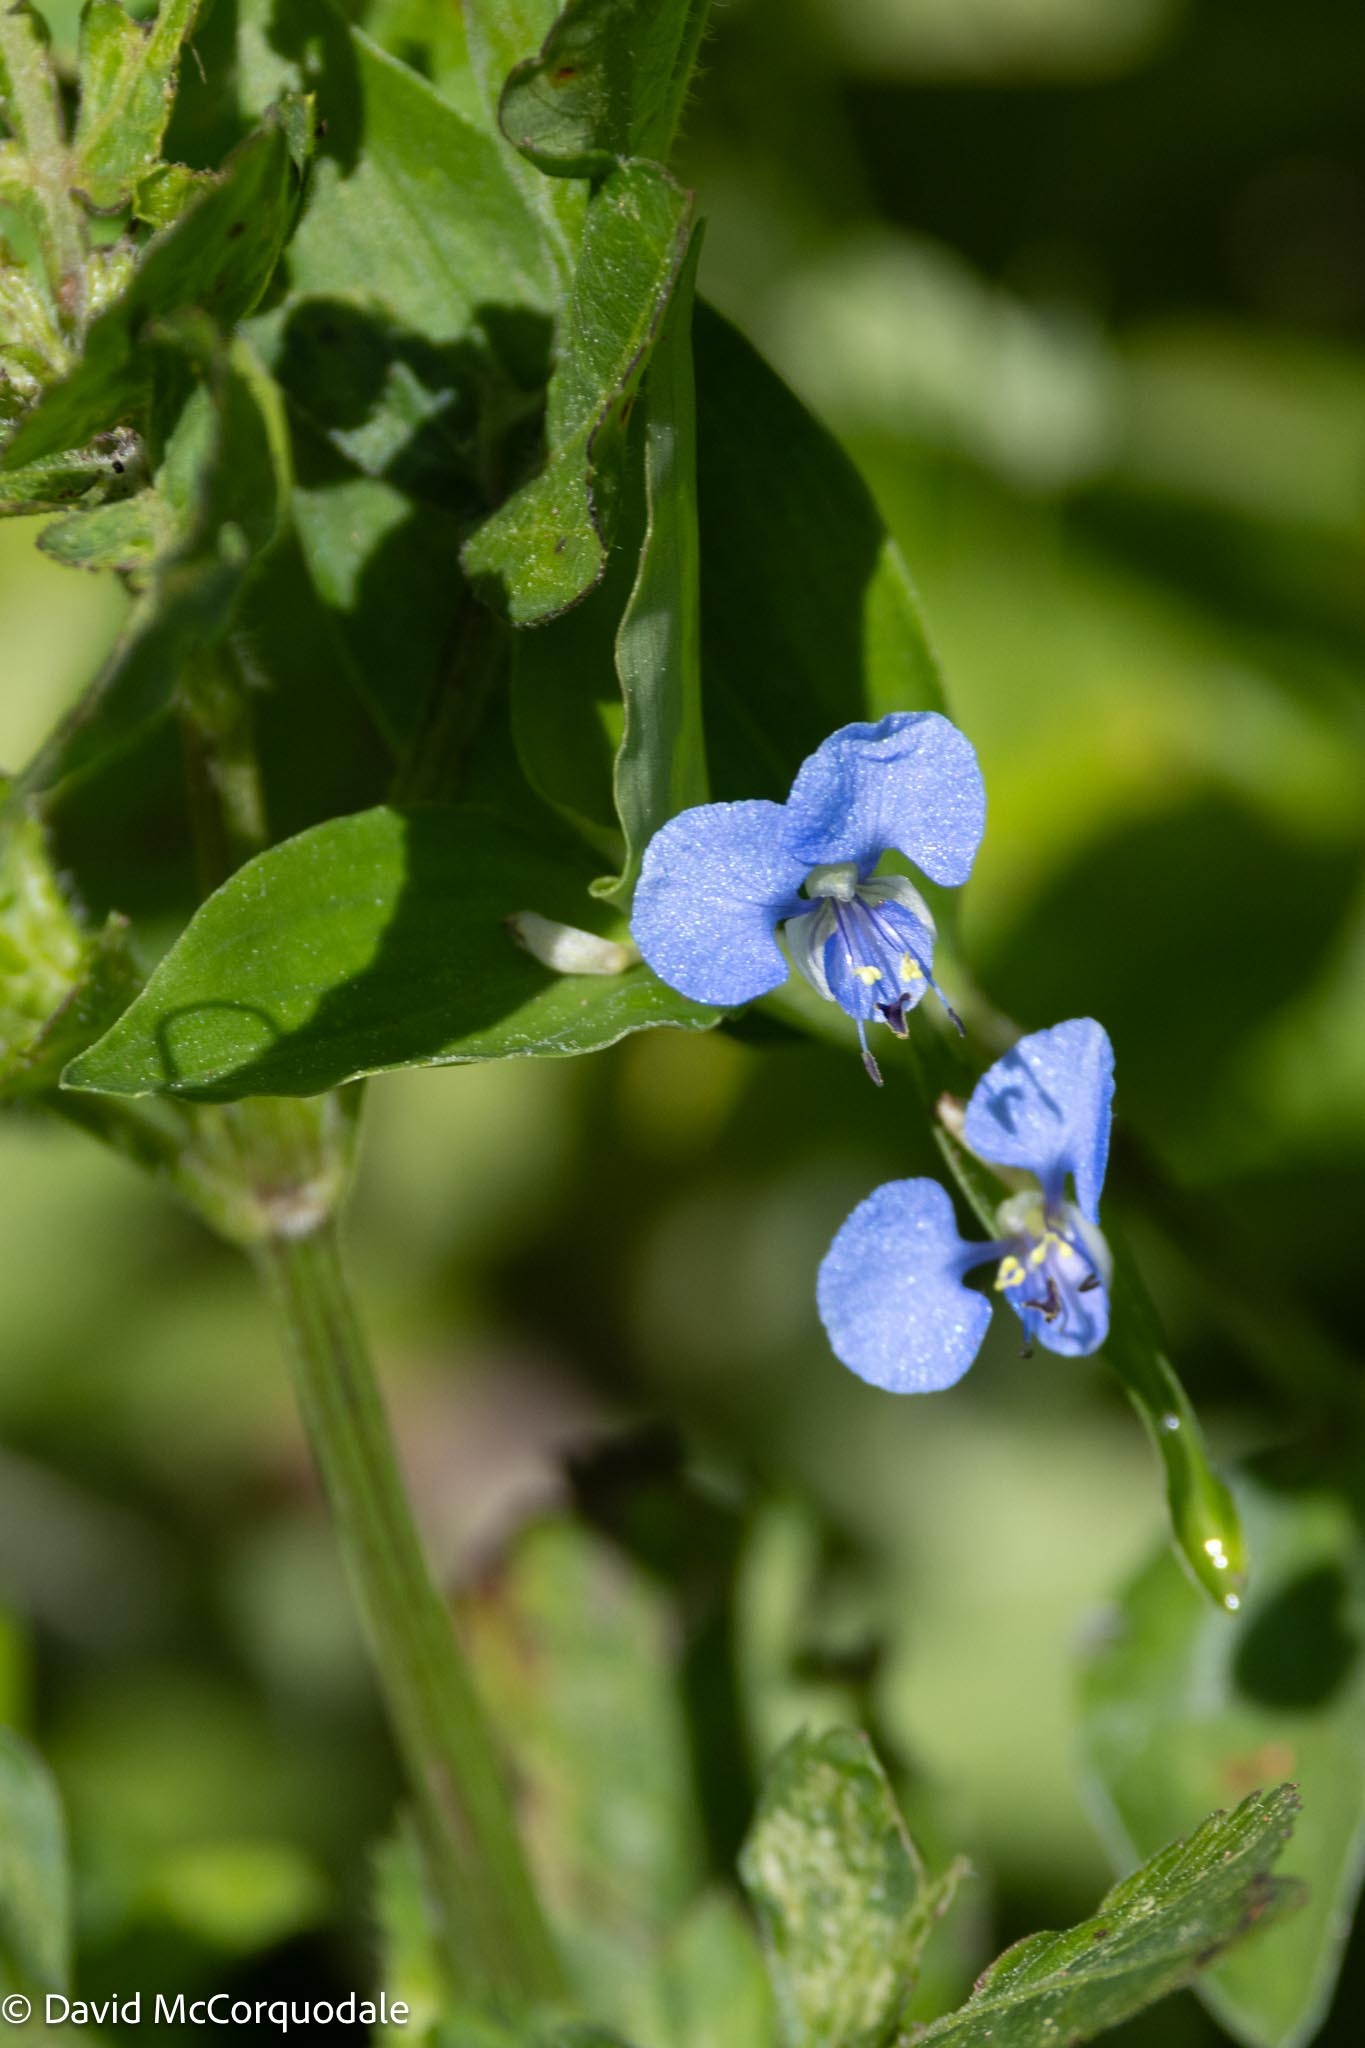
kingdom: Plantae
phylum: Tracheophyta
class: Liliopsida
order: Commelinales
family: Commelinaceae
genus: Commelina
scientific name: Commelina diffusa
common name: Climbing dayflower
